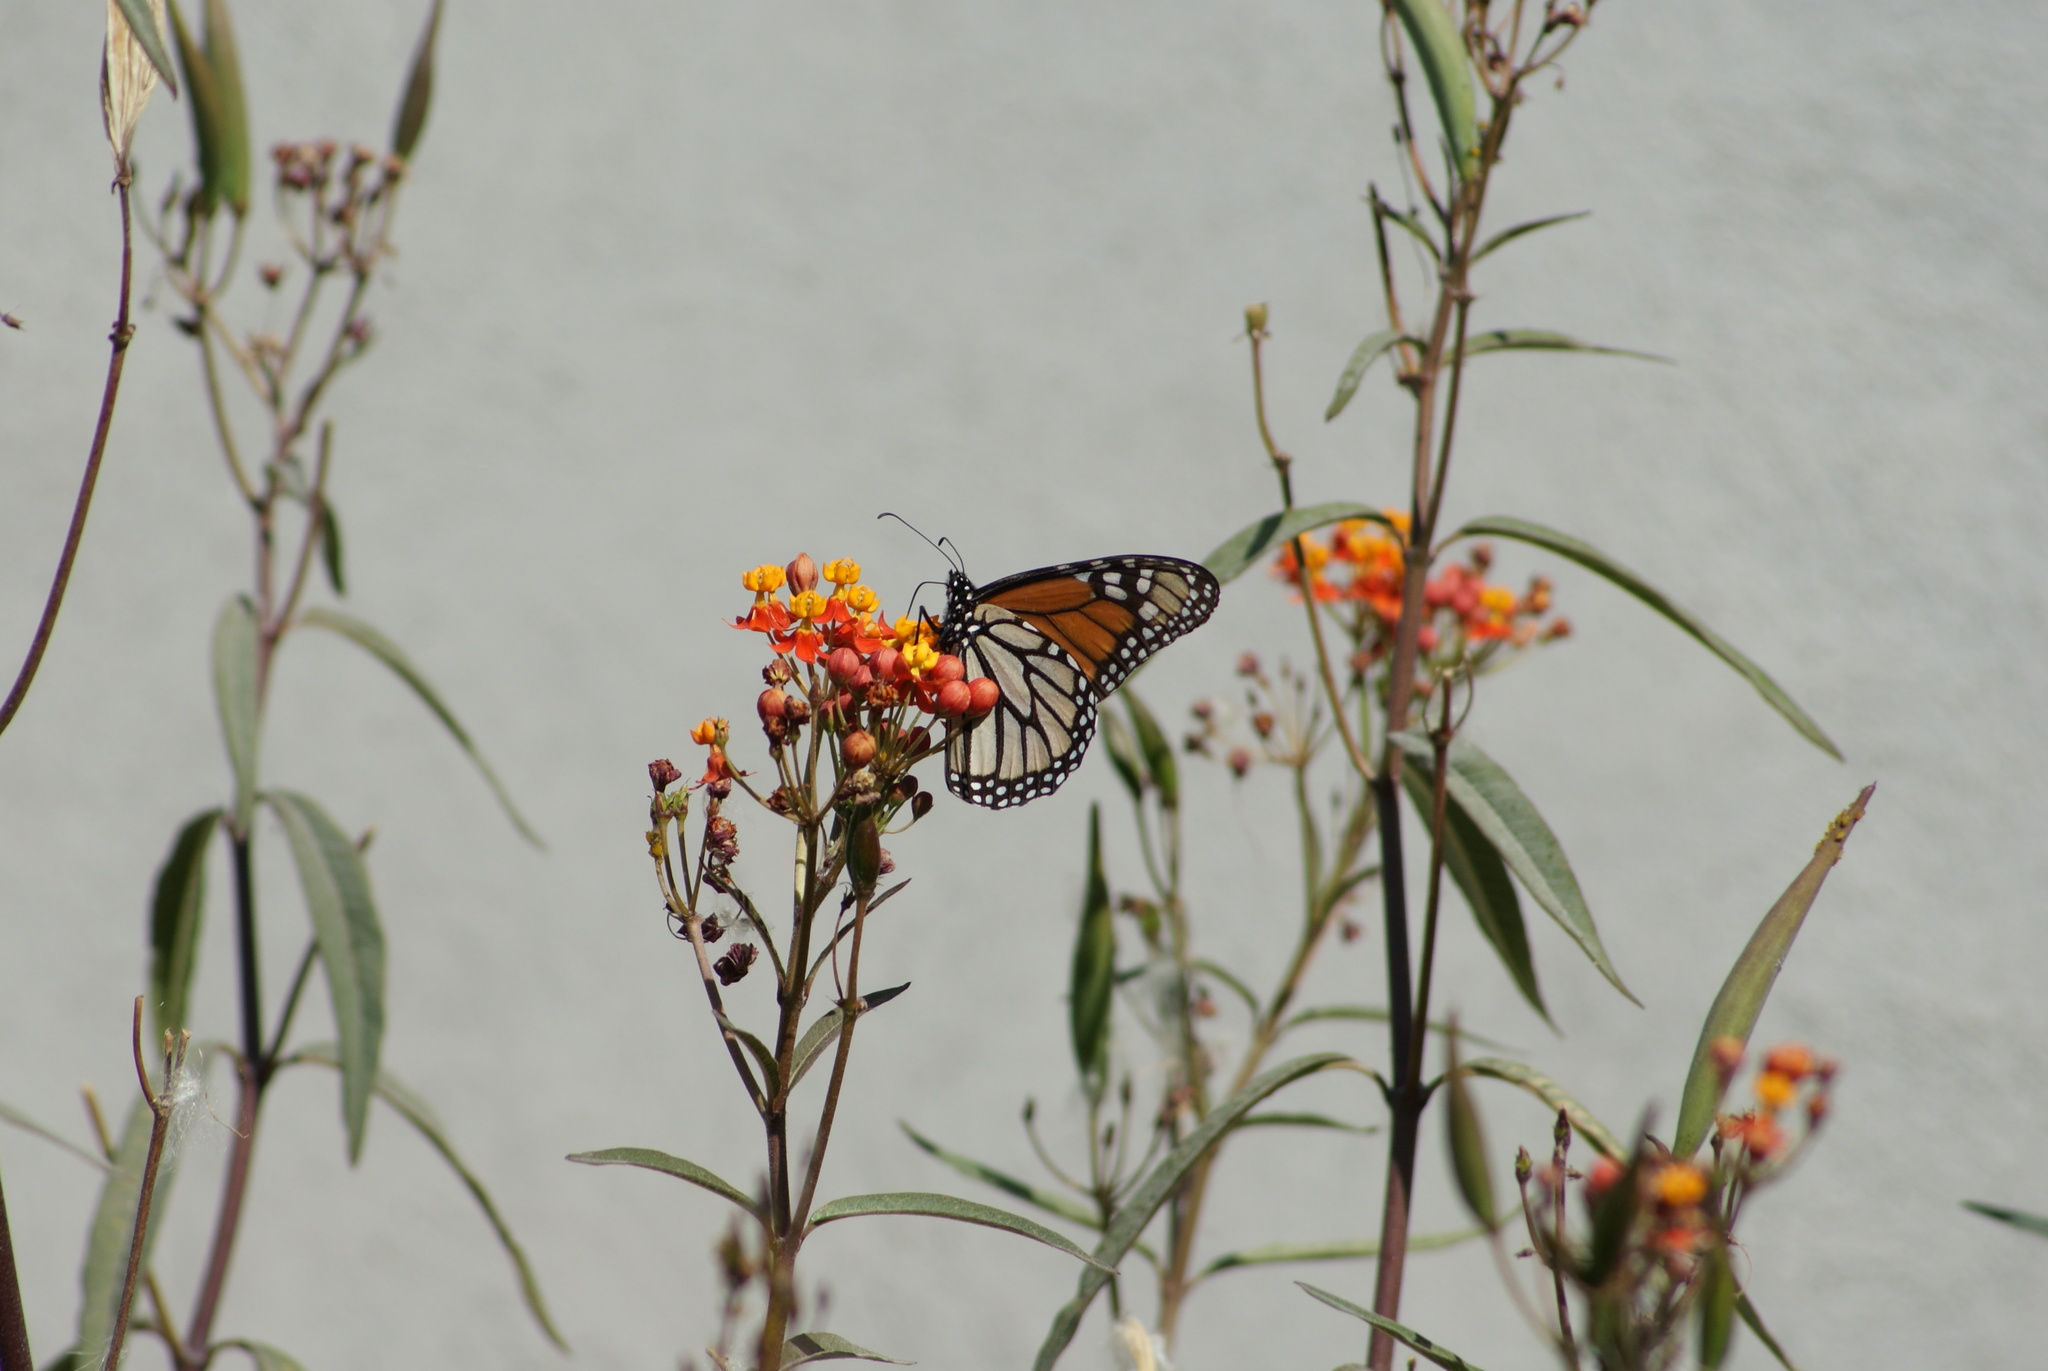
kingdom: Animalia
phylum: Arthropoda
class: Insecta
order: Lepidoptera
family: Nymphalidae
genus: Danaus
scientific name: Danaus plexippus
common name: Monarch
